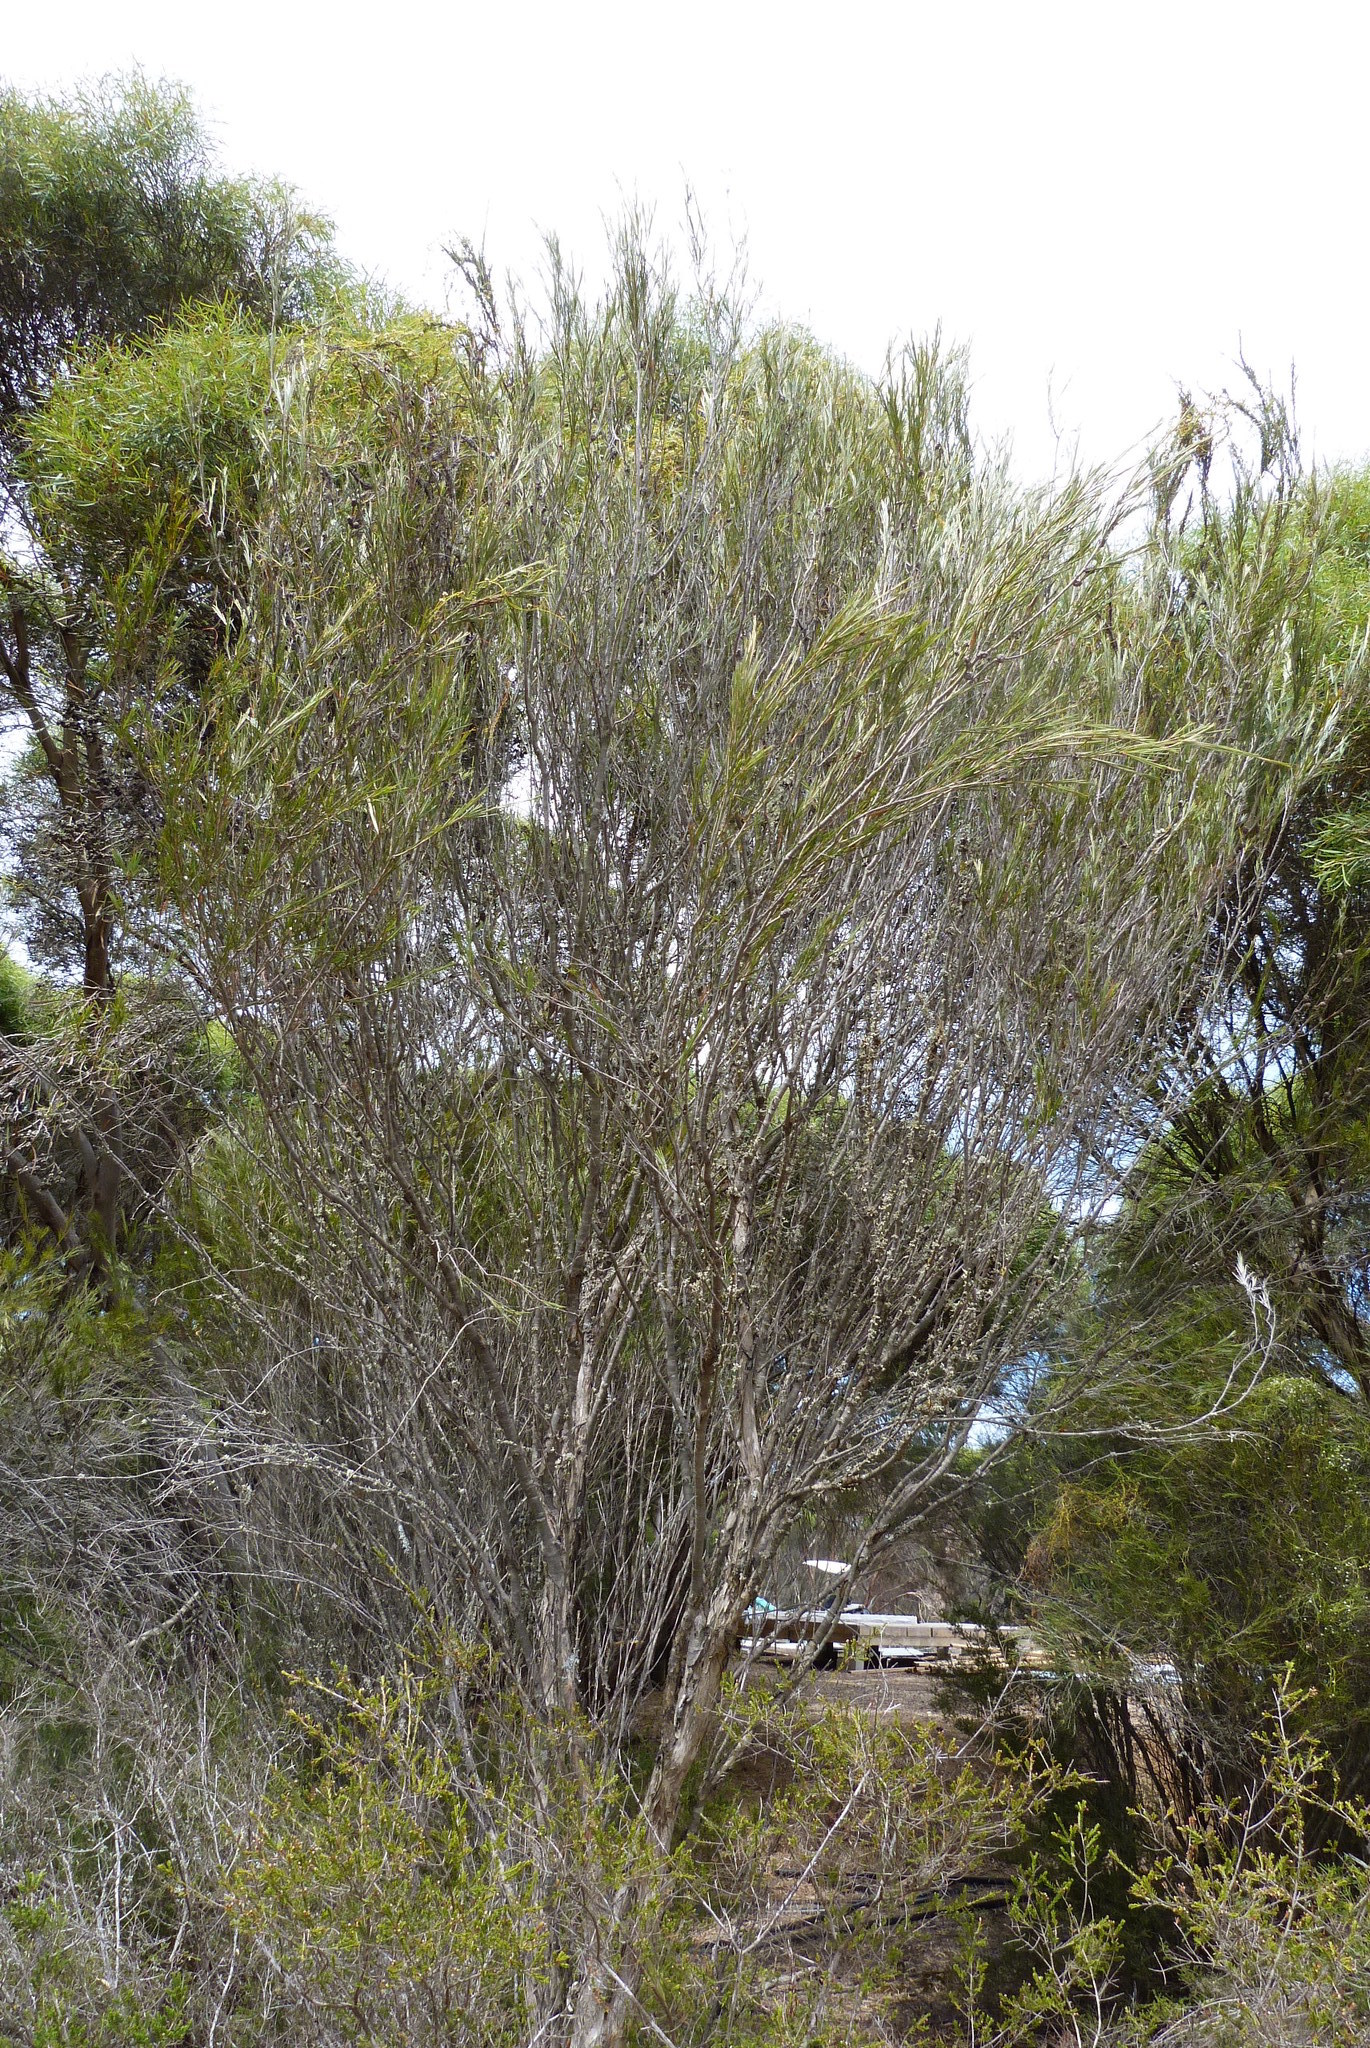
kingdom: Plantae
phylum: Tracheophyta
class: Magnoliopsida
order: Myrtales
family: Myrtaceae
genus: Melaleuca
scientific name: Melaleuca uncinata
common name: Broom honey myrtle
